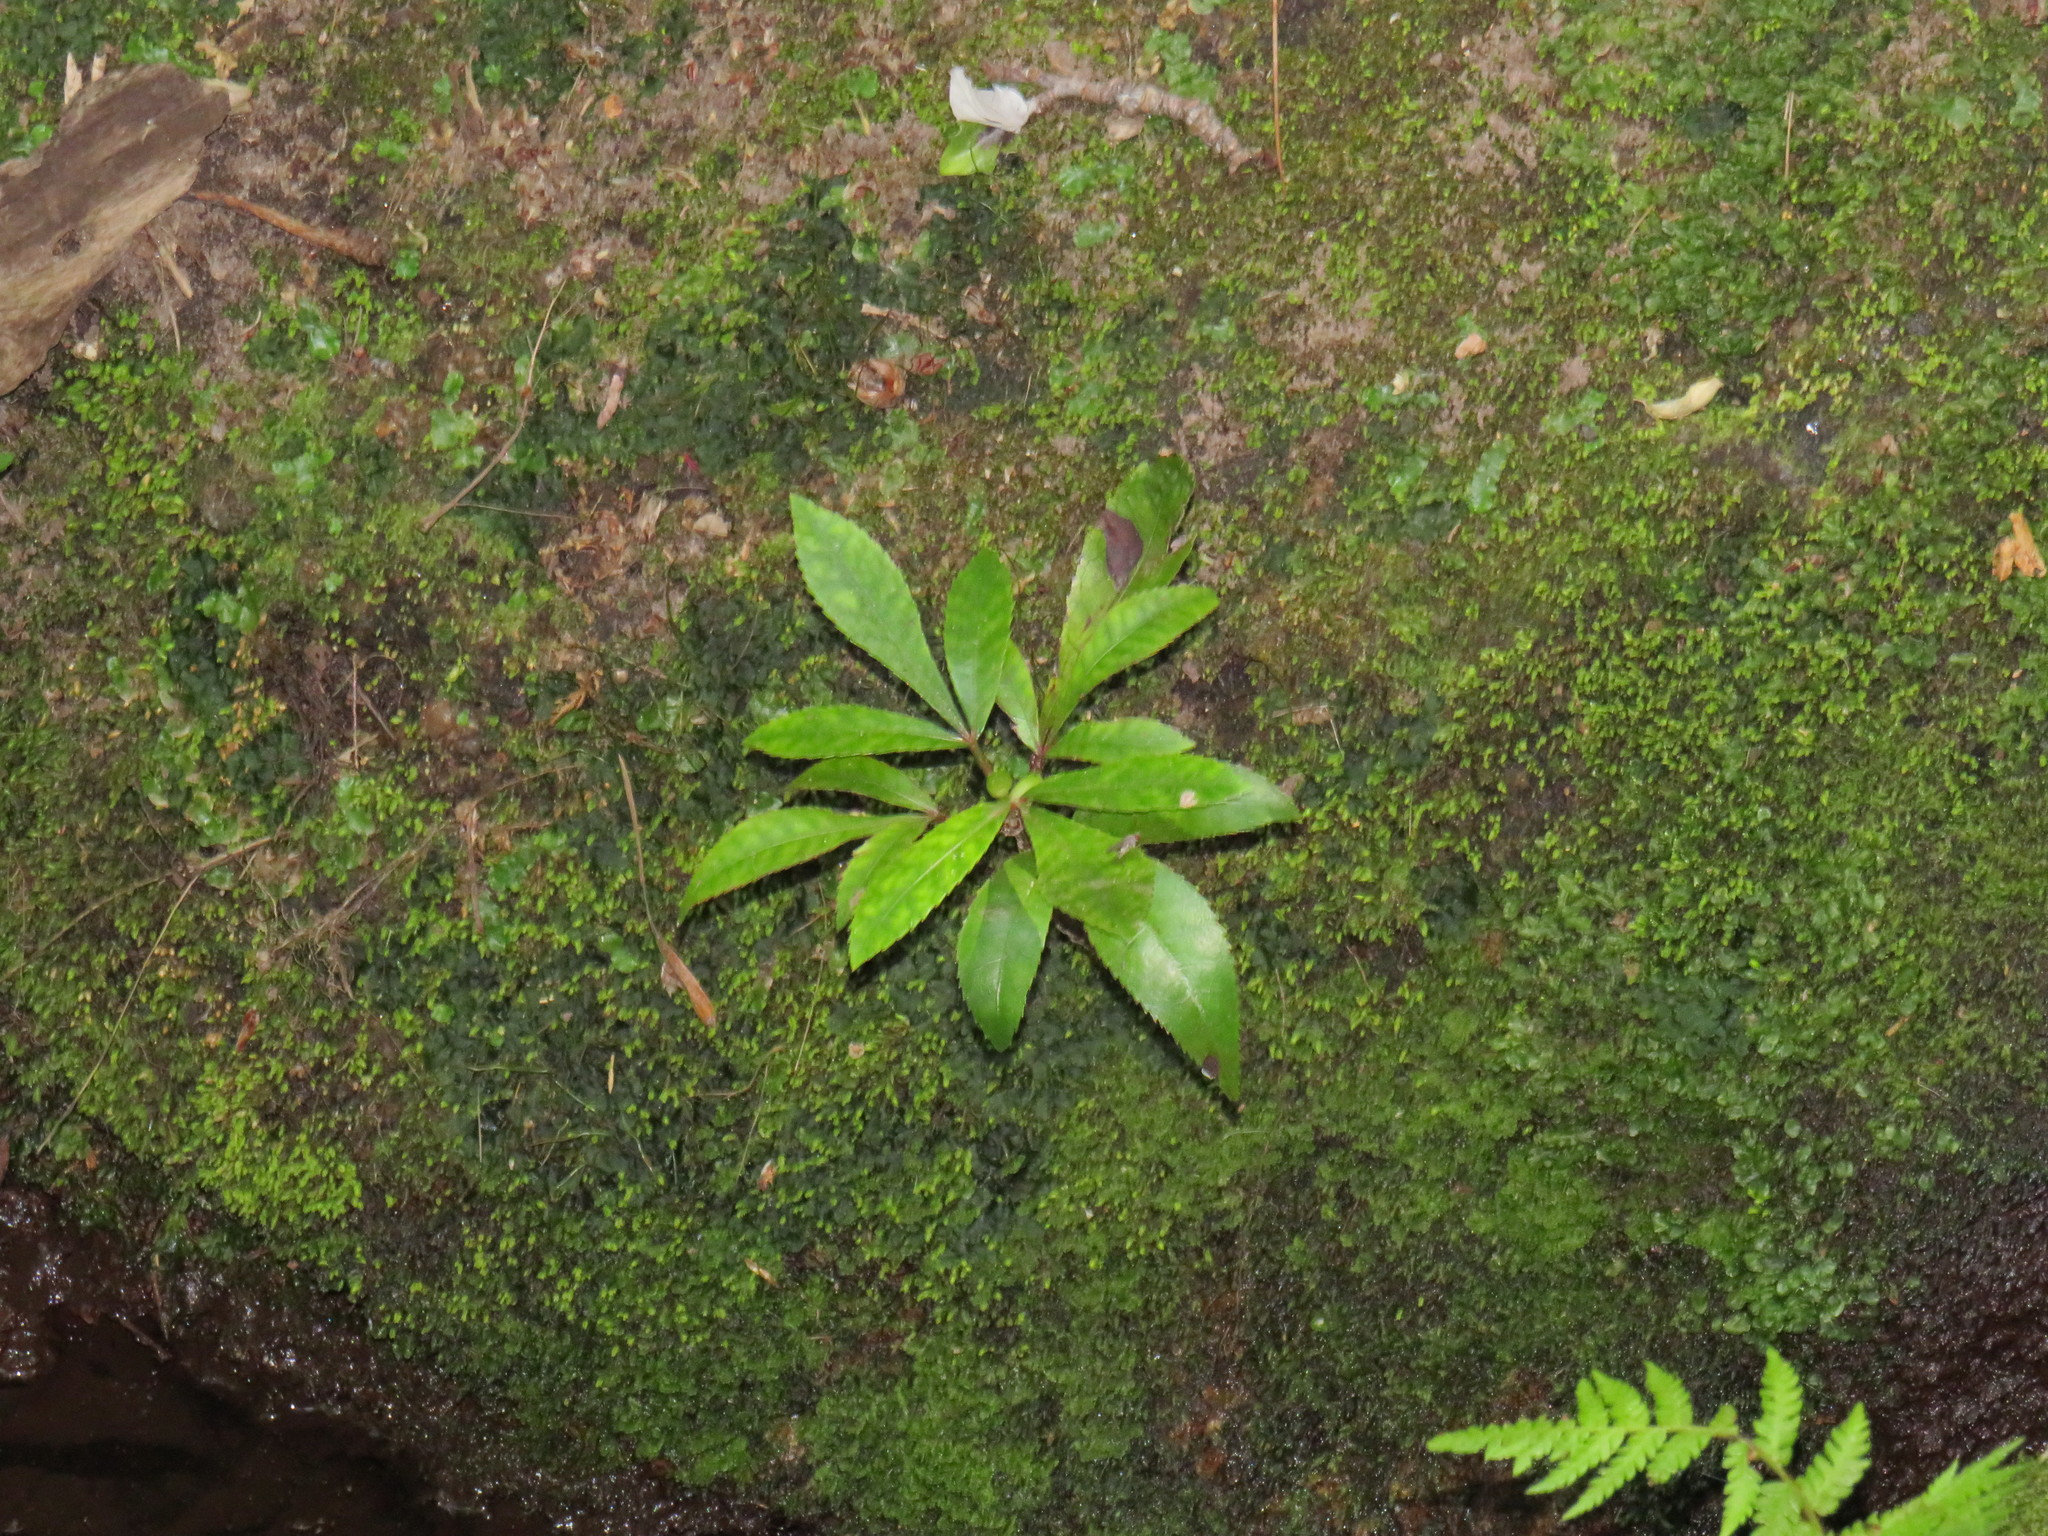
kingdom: Plantae
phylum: Tracheophyta
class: Magnoliopsida
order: Oxalidales
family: Cunoniaceae
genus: Cunonia
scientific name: Cunonia capensis
